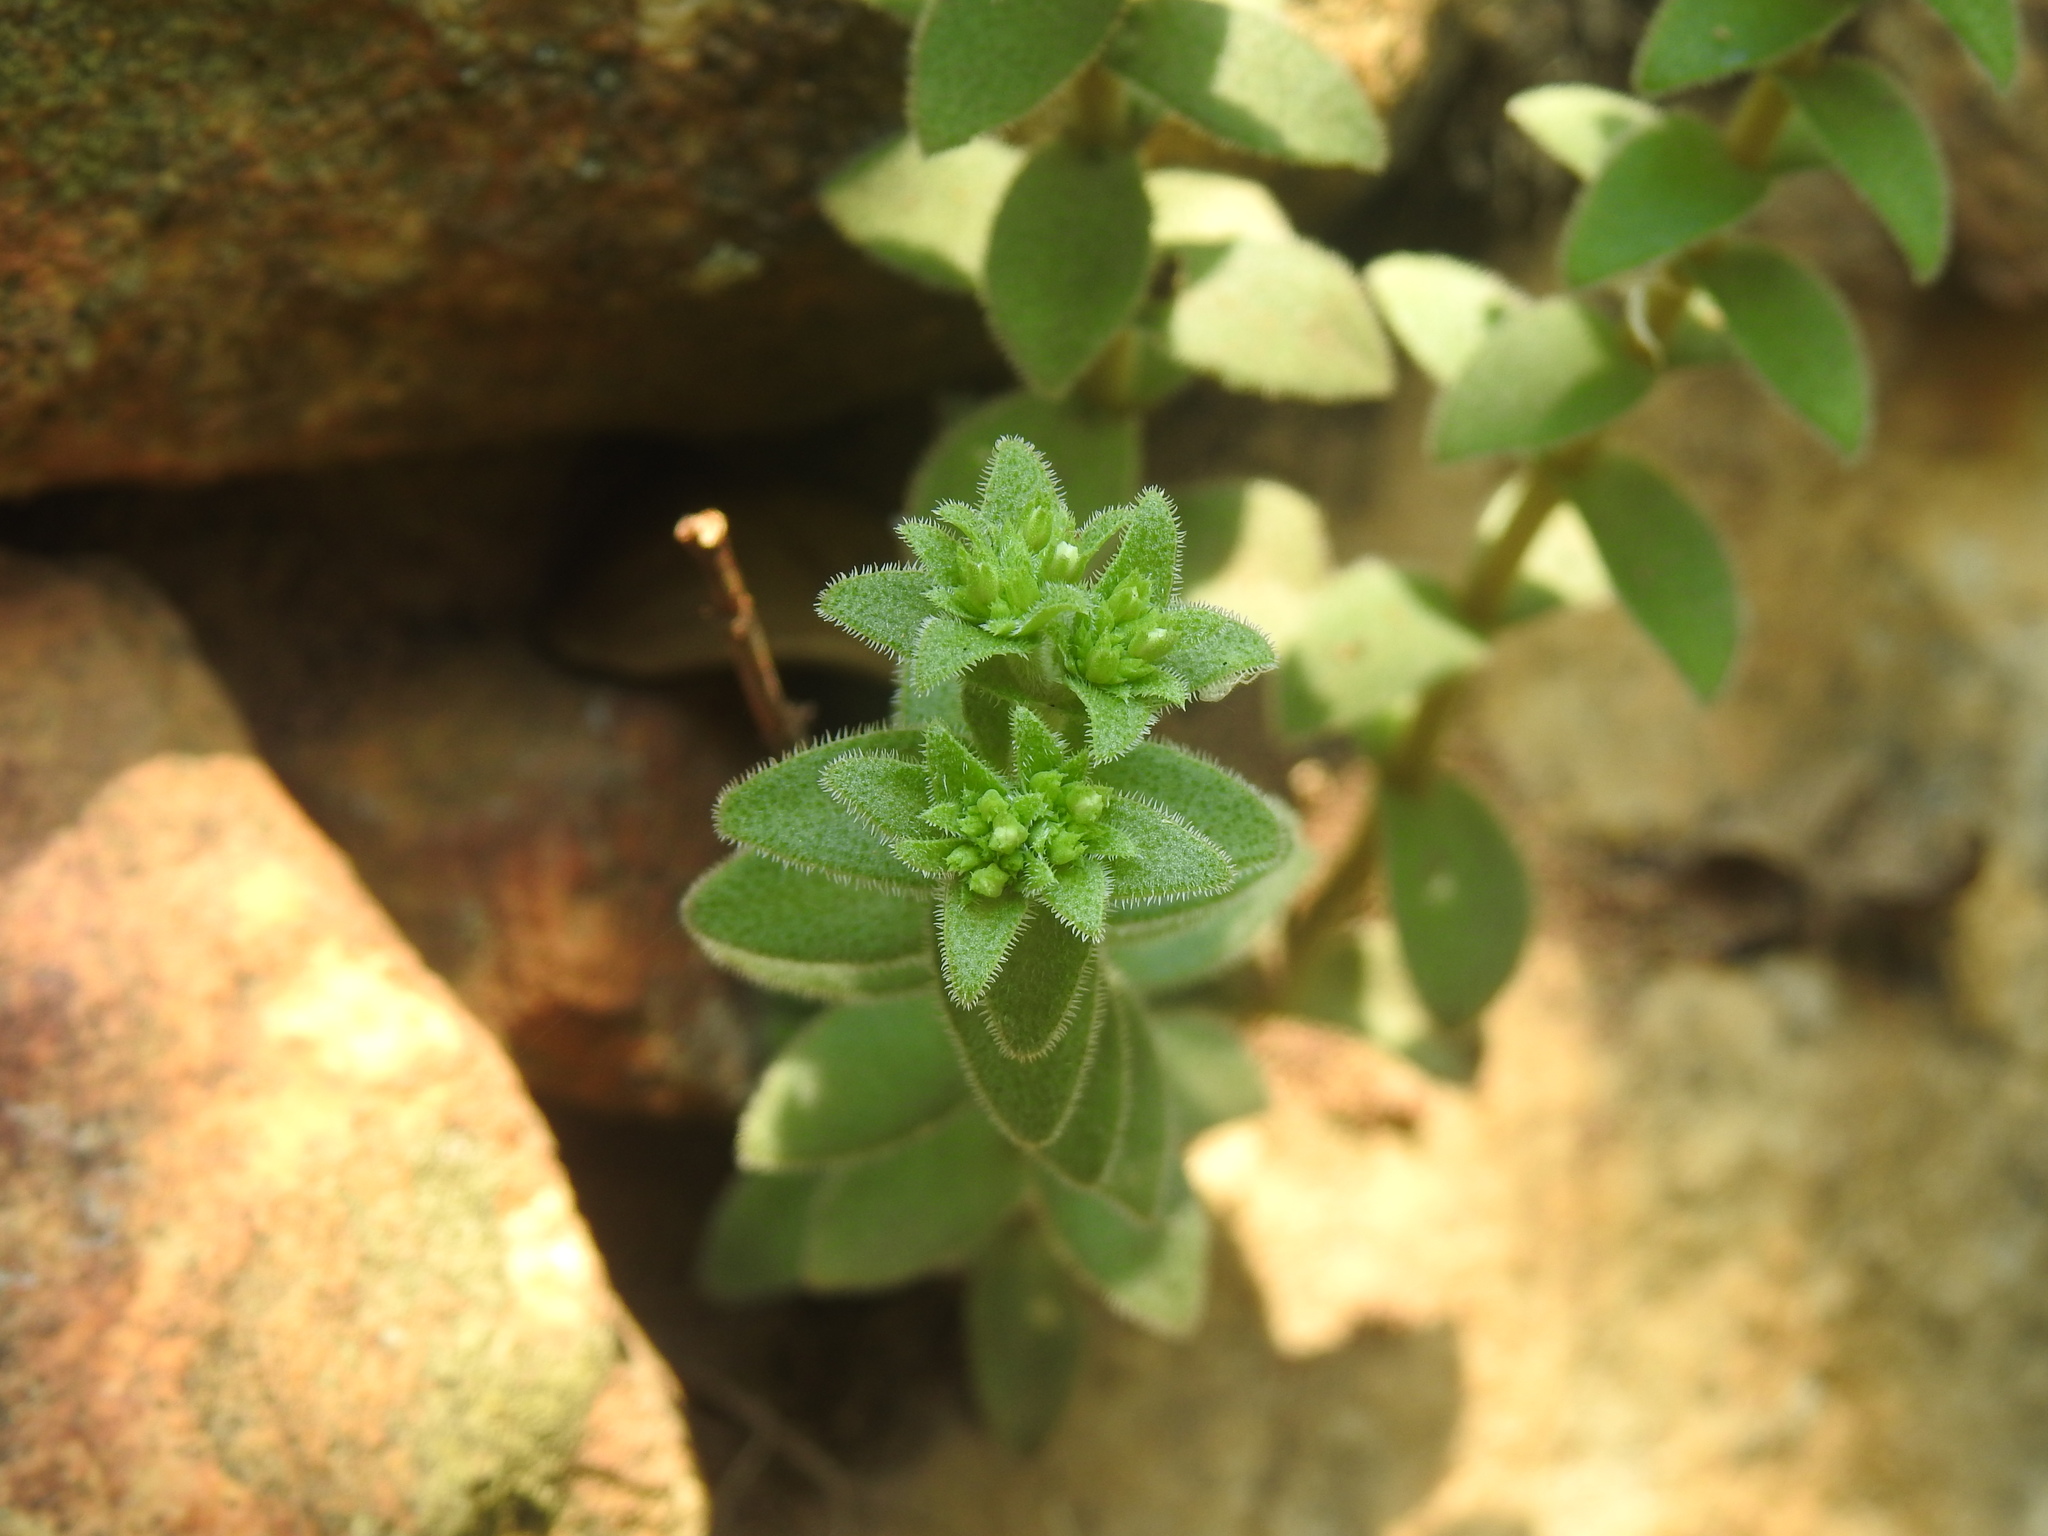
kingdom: Plantae
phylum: Tracheophyta
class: Magnoliopsida
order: Saxifragales
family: Crassulaceae
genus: Crassula
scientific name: Crassula setulosa
